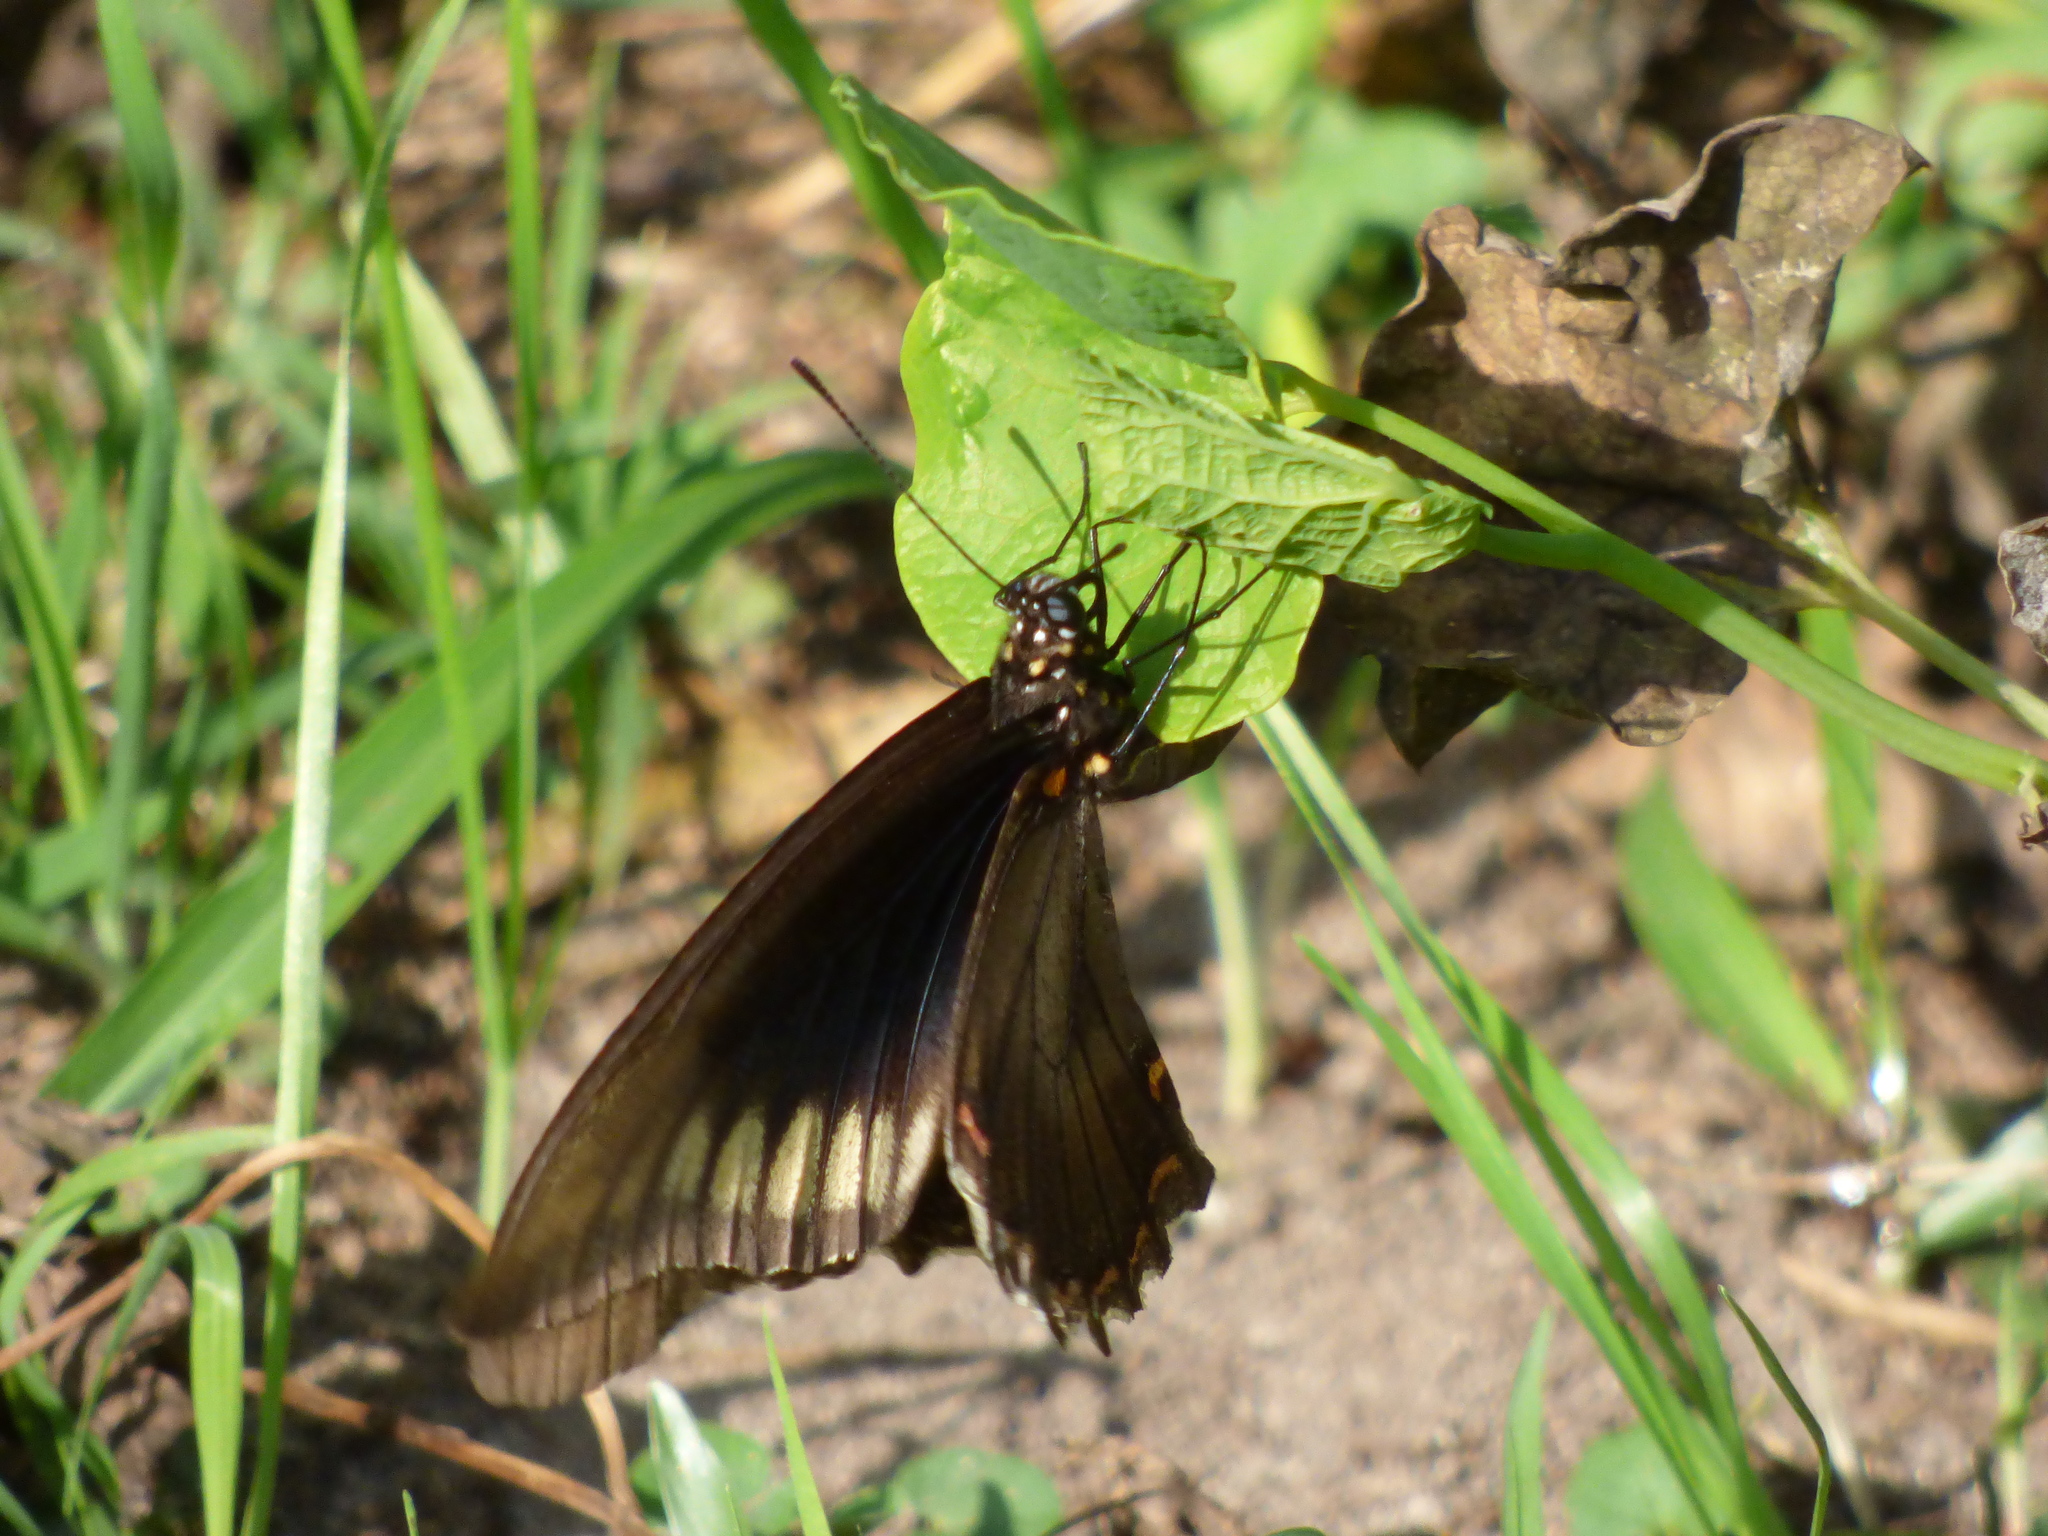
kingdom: Animalia
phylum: Arthropoda
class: Insecta
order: Lepidoptera
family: Papilionidae
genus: Battus
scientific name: Battus polydamas
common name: Polydamas swallowtail
